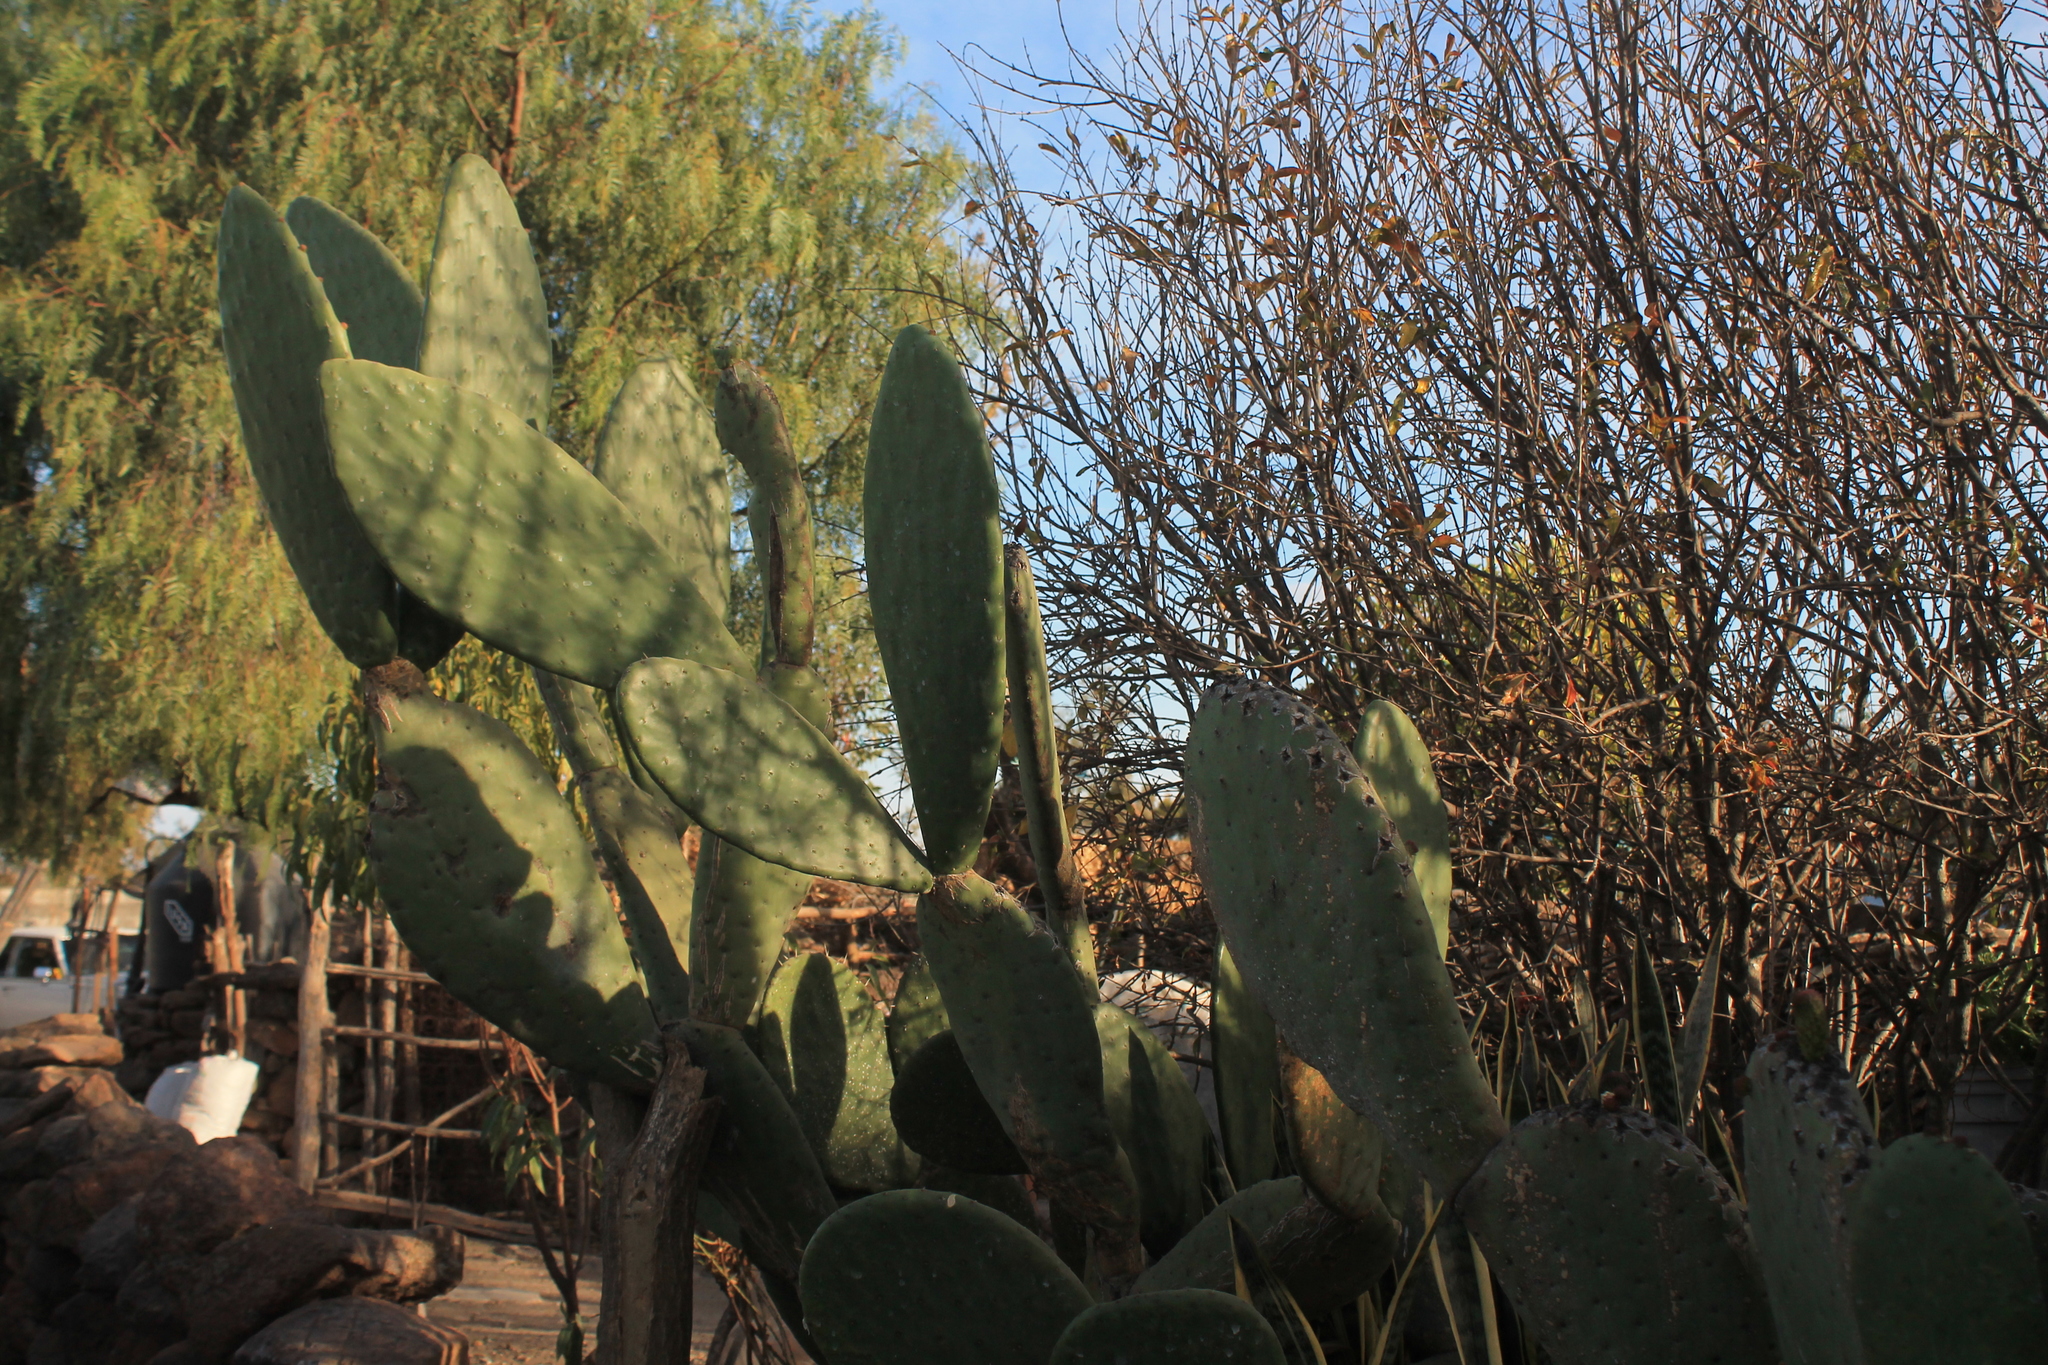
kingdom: Plantae
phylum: Tracheophyta
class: Magnoliopsida
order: Caryophyllales
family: Cactaceae
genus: Opuntia
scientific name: Opuntia ficus-indica
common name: Barbary fig
